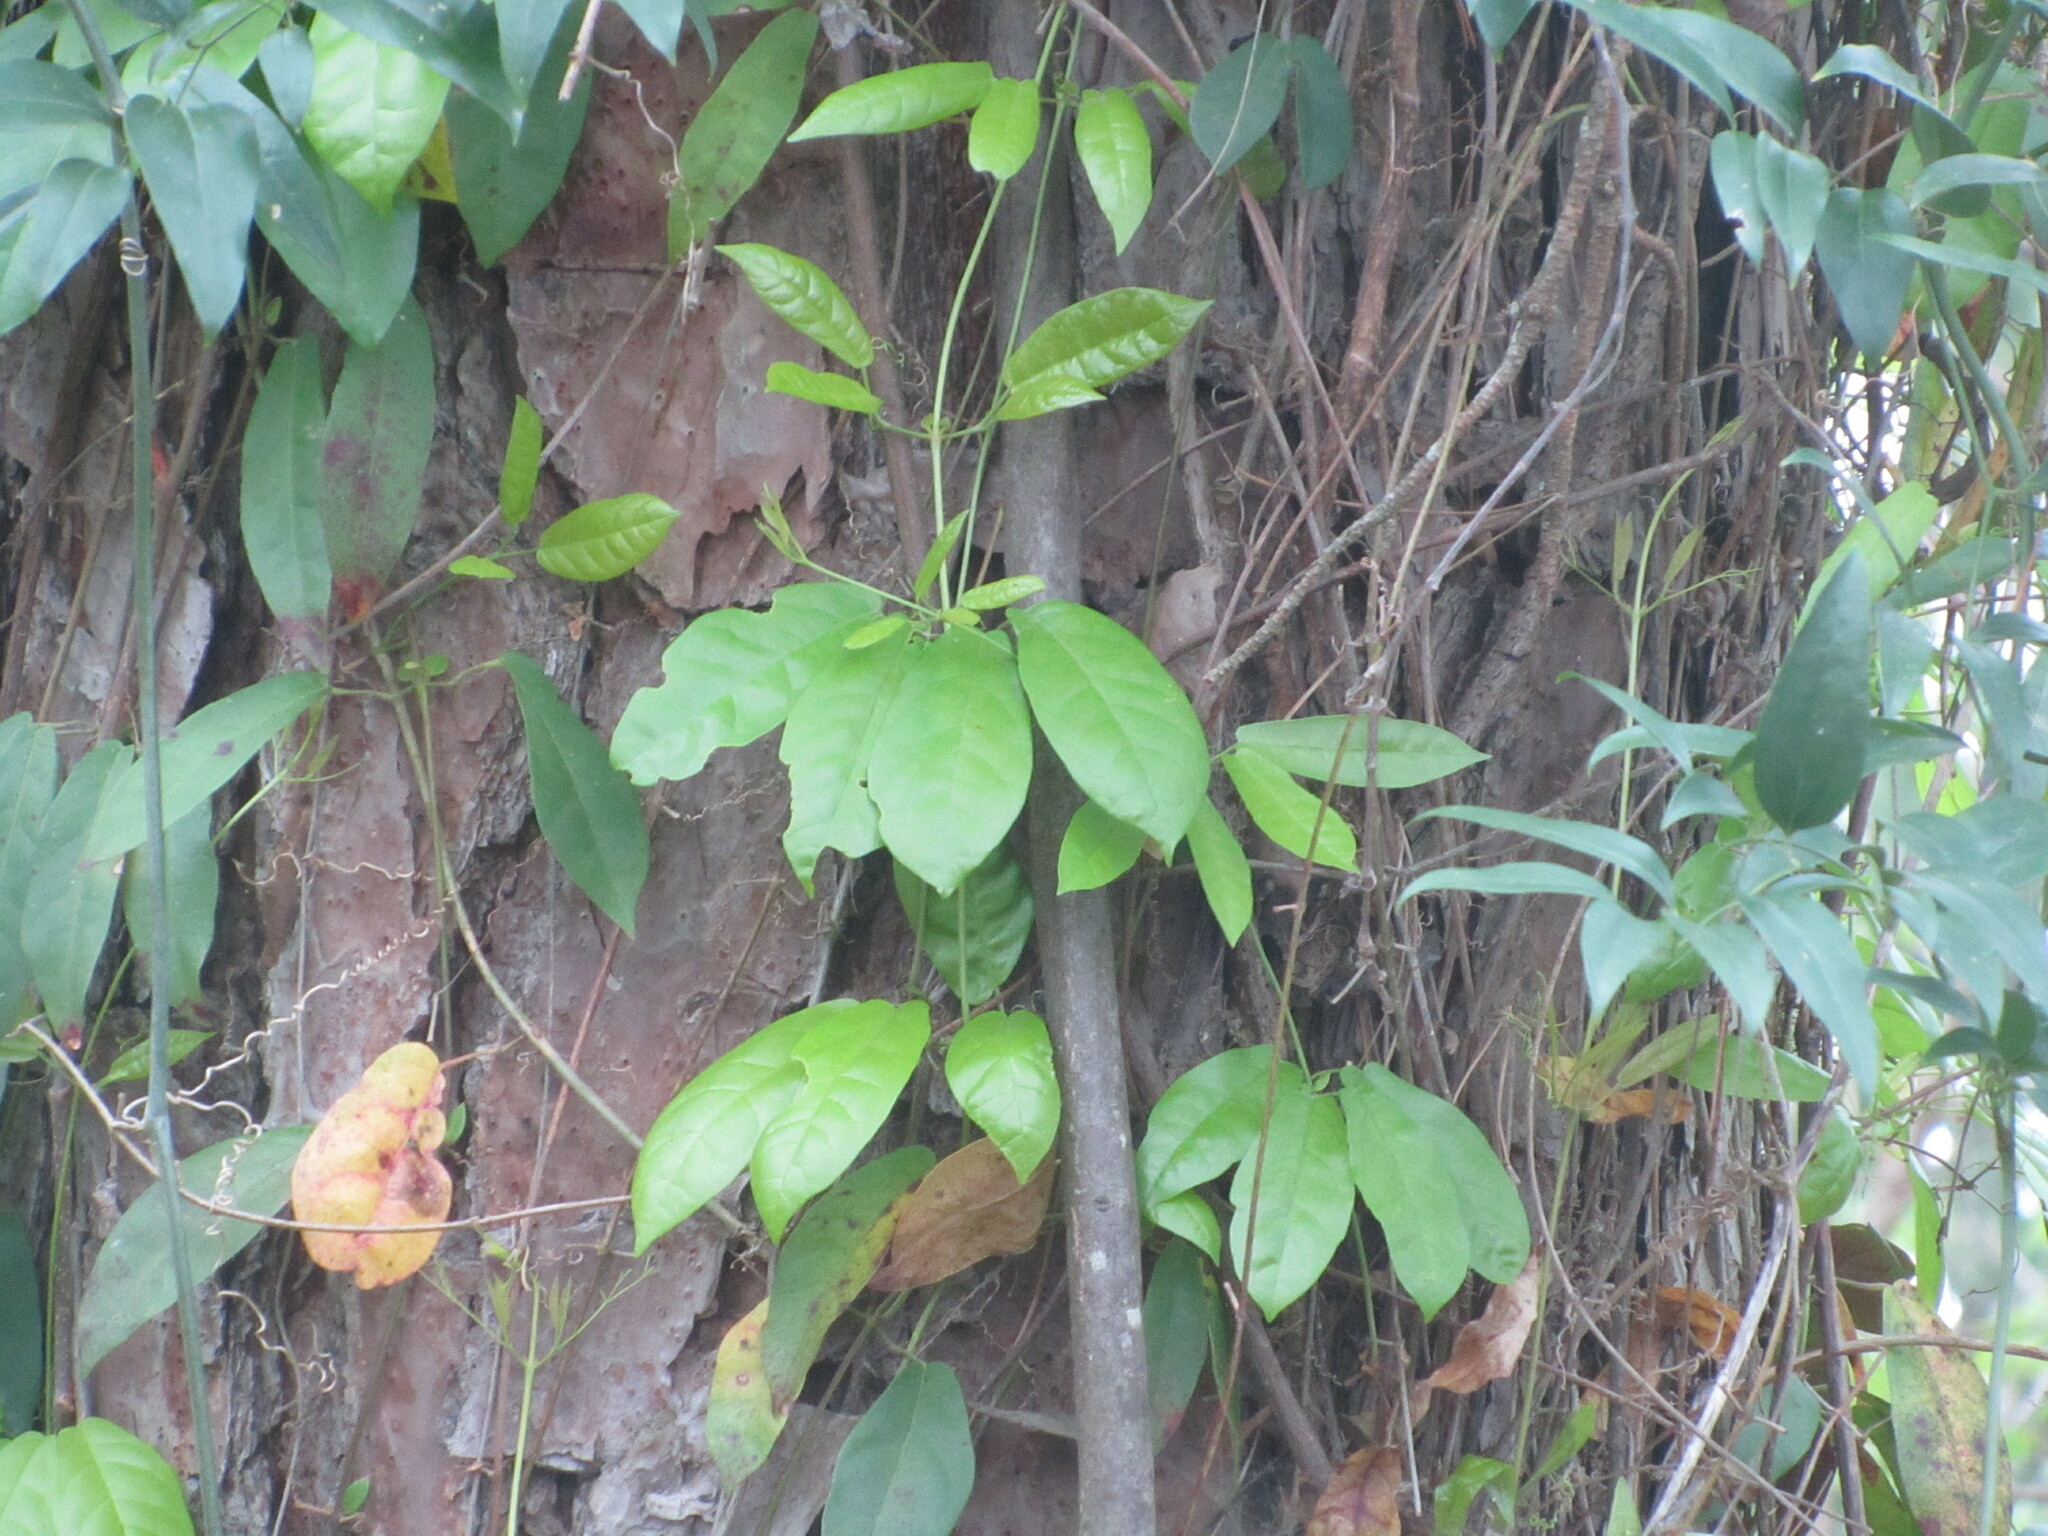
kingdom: Plantae
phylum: Tracheophyta
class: Magnoliopsida
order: Lamiales
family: Bignoniaceae
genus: Bignonia
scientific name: Bignonia capreolata
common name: Crossvine
